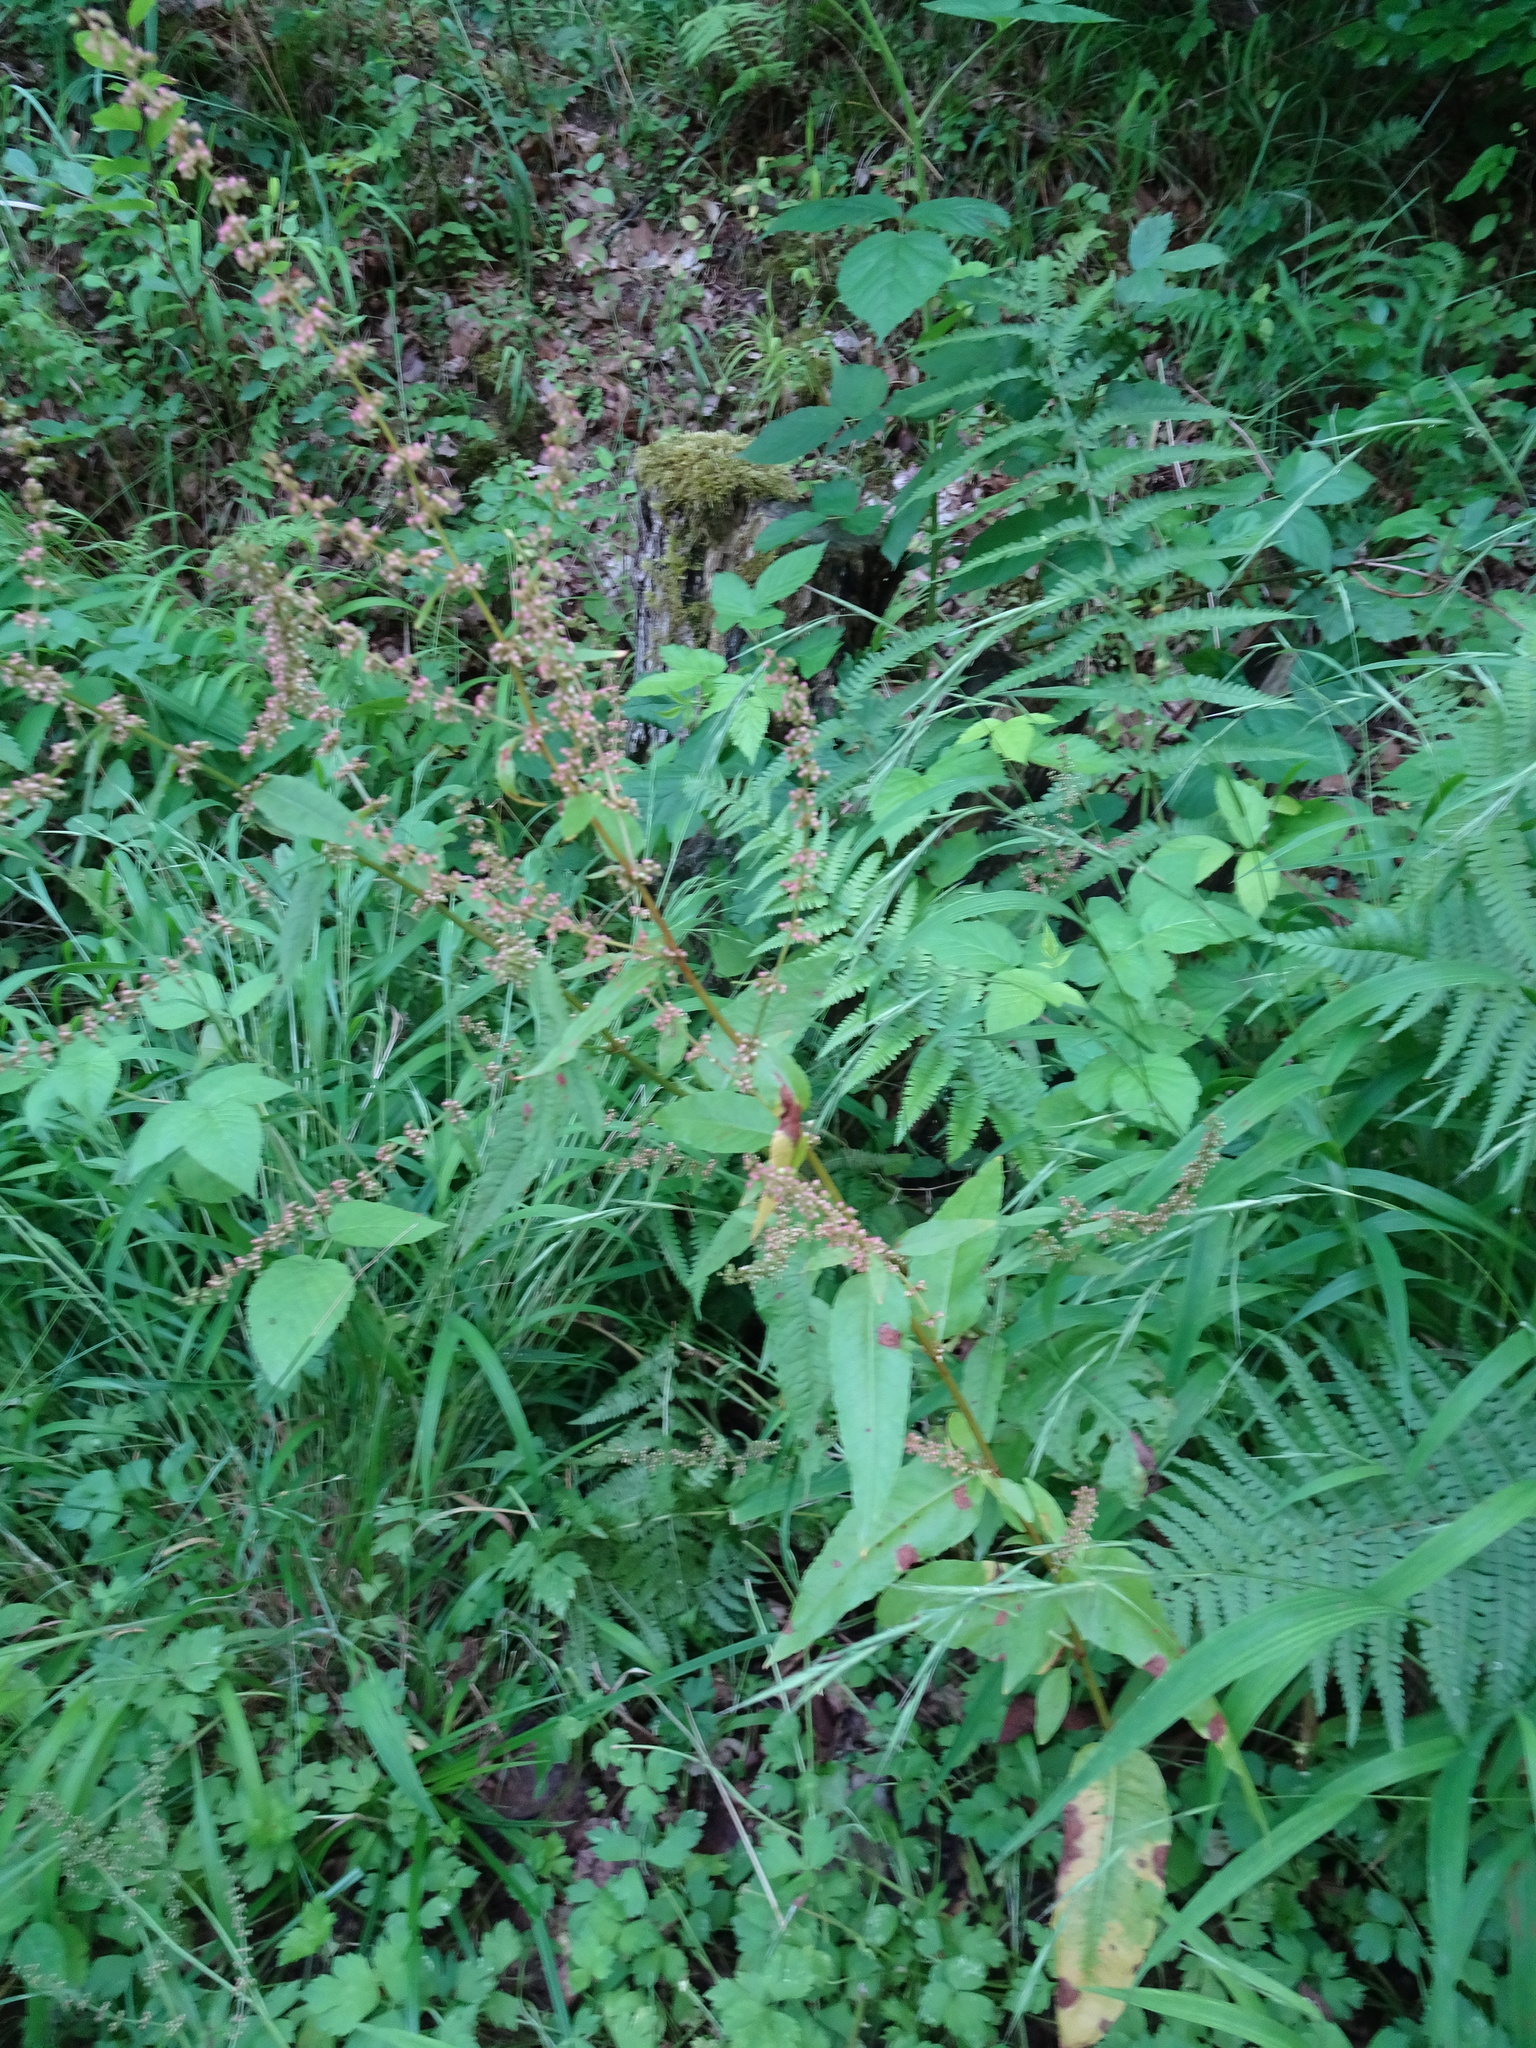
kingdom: Plantae
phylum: Tracheophyta
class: Magnoliopsida
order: Caryophyllales
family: Polygonaceae
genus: Rumex
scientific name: Rumex sanguineus
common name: Wood dock
